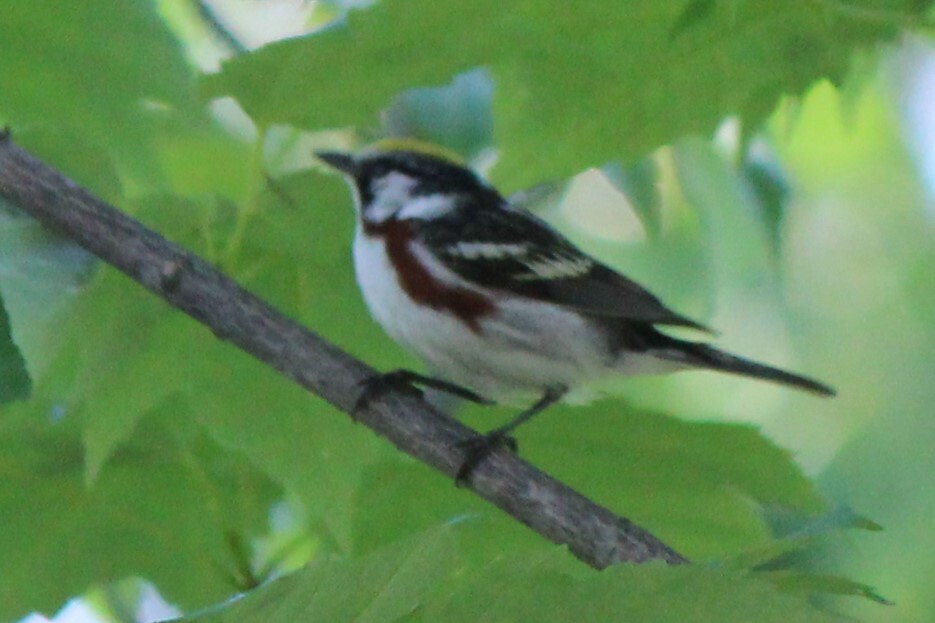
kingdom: Animalia
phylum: Chordata
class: Aves
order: Passeriformes
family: Parulidae
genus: Setophaga
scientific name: Setophaga pensylvanica
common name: Chestnut-sided warbler
